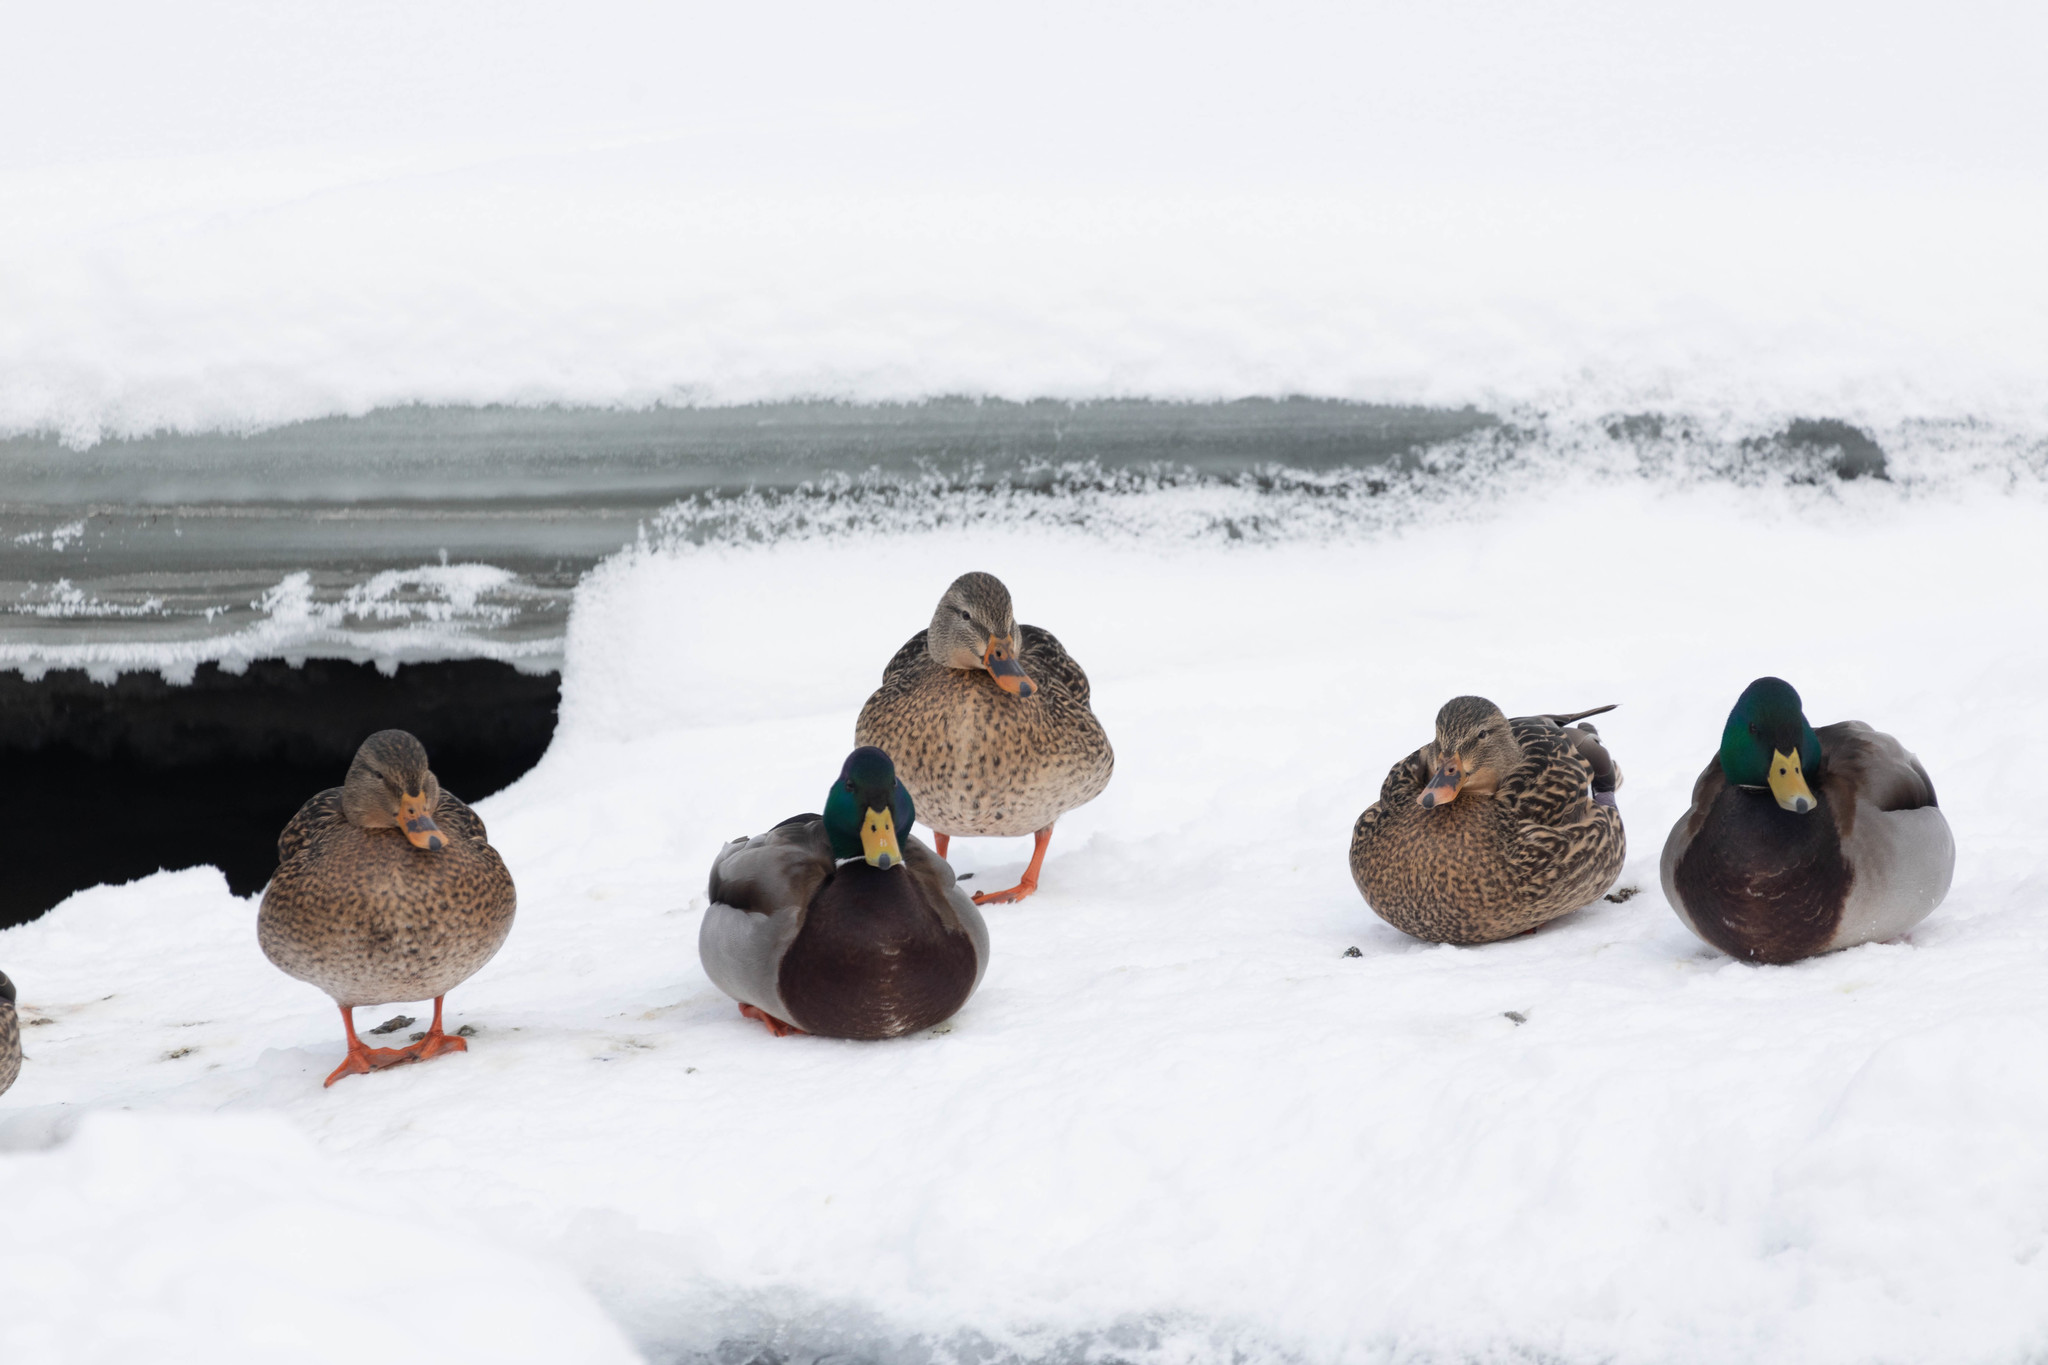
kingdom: Animalia
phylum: Chordata
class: Aves
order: Anseriformes
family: Anatidae
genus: Anas
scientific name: Anas platyrhynchos
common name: Mallard
